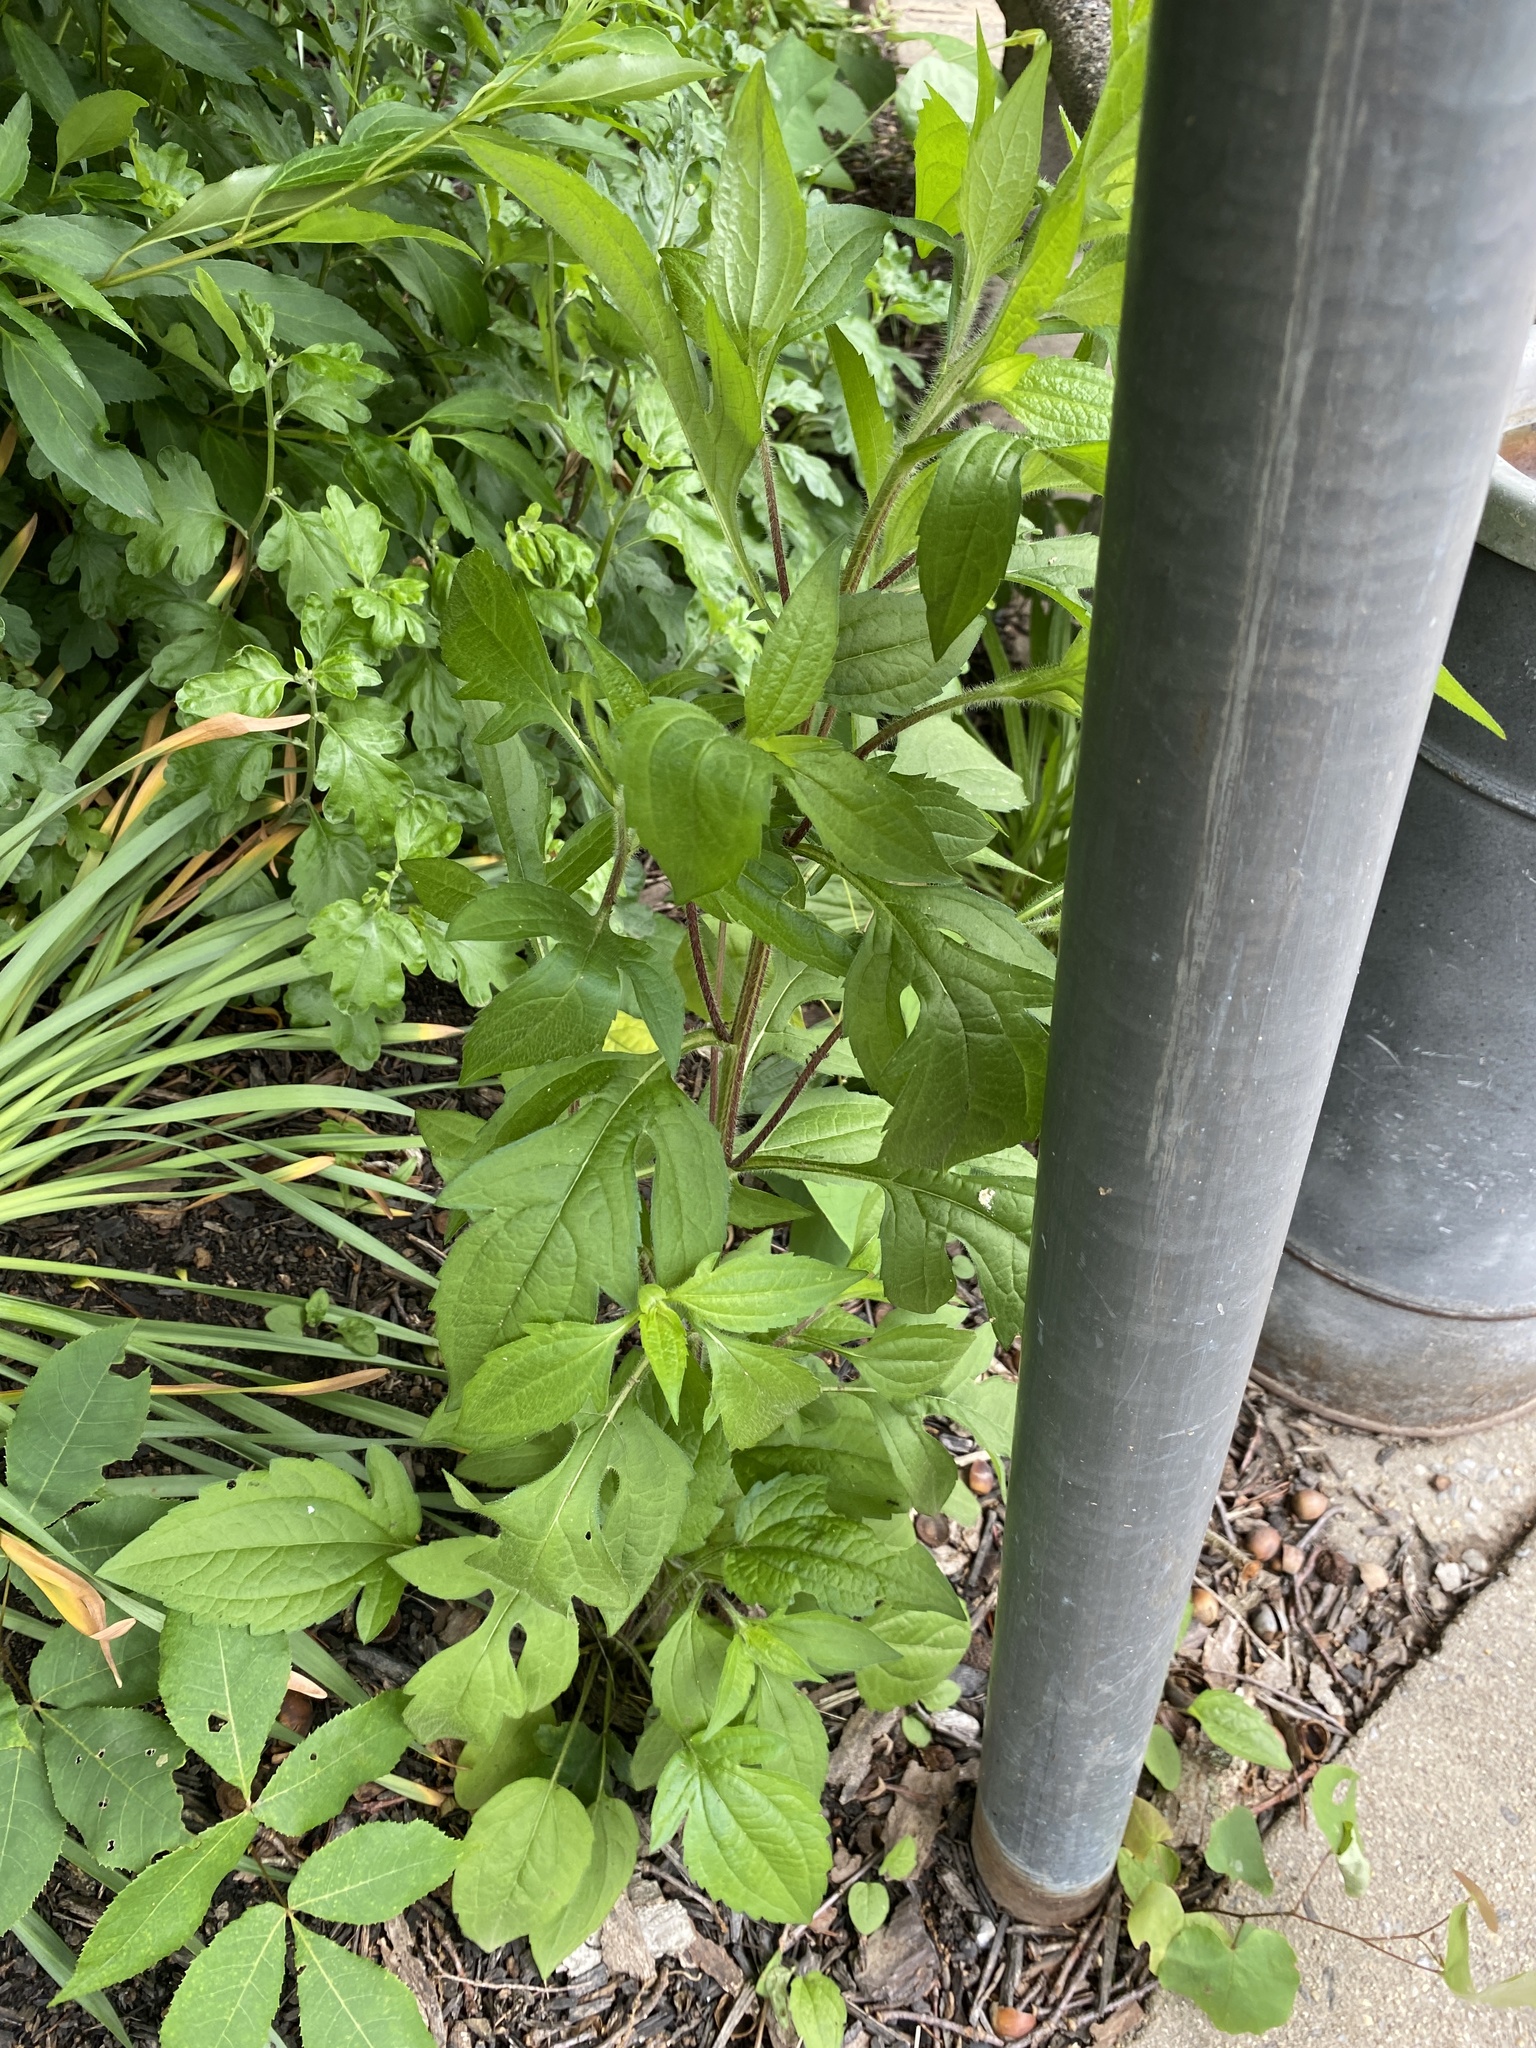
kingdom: Plantae
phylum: Tracheophyta
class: Magnoliopsida
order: Asterales
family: Asteraceae
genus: Rudbeckia
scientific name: Rudbeckia triloba
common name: Thin-leaved coneflower
